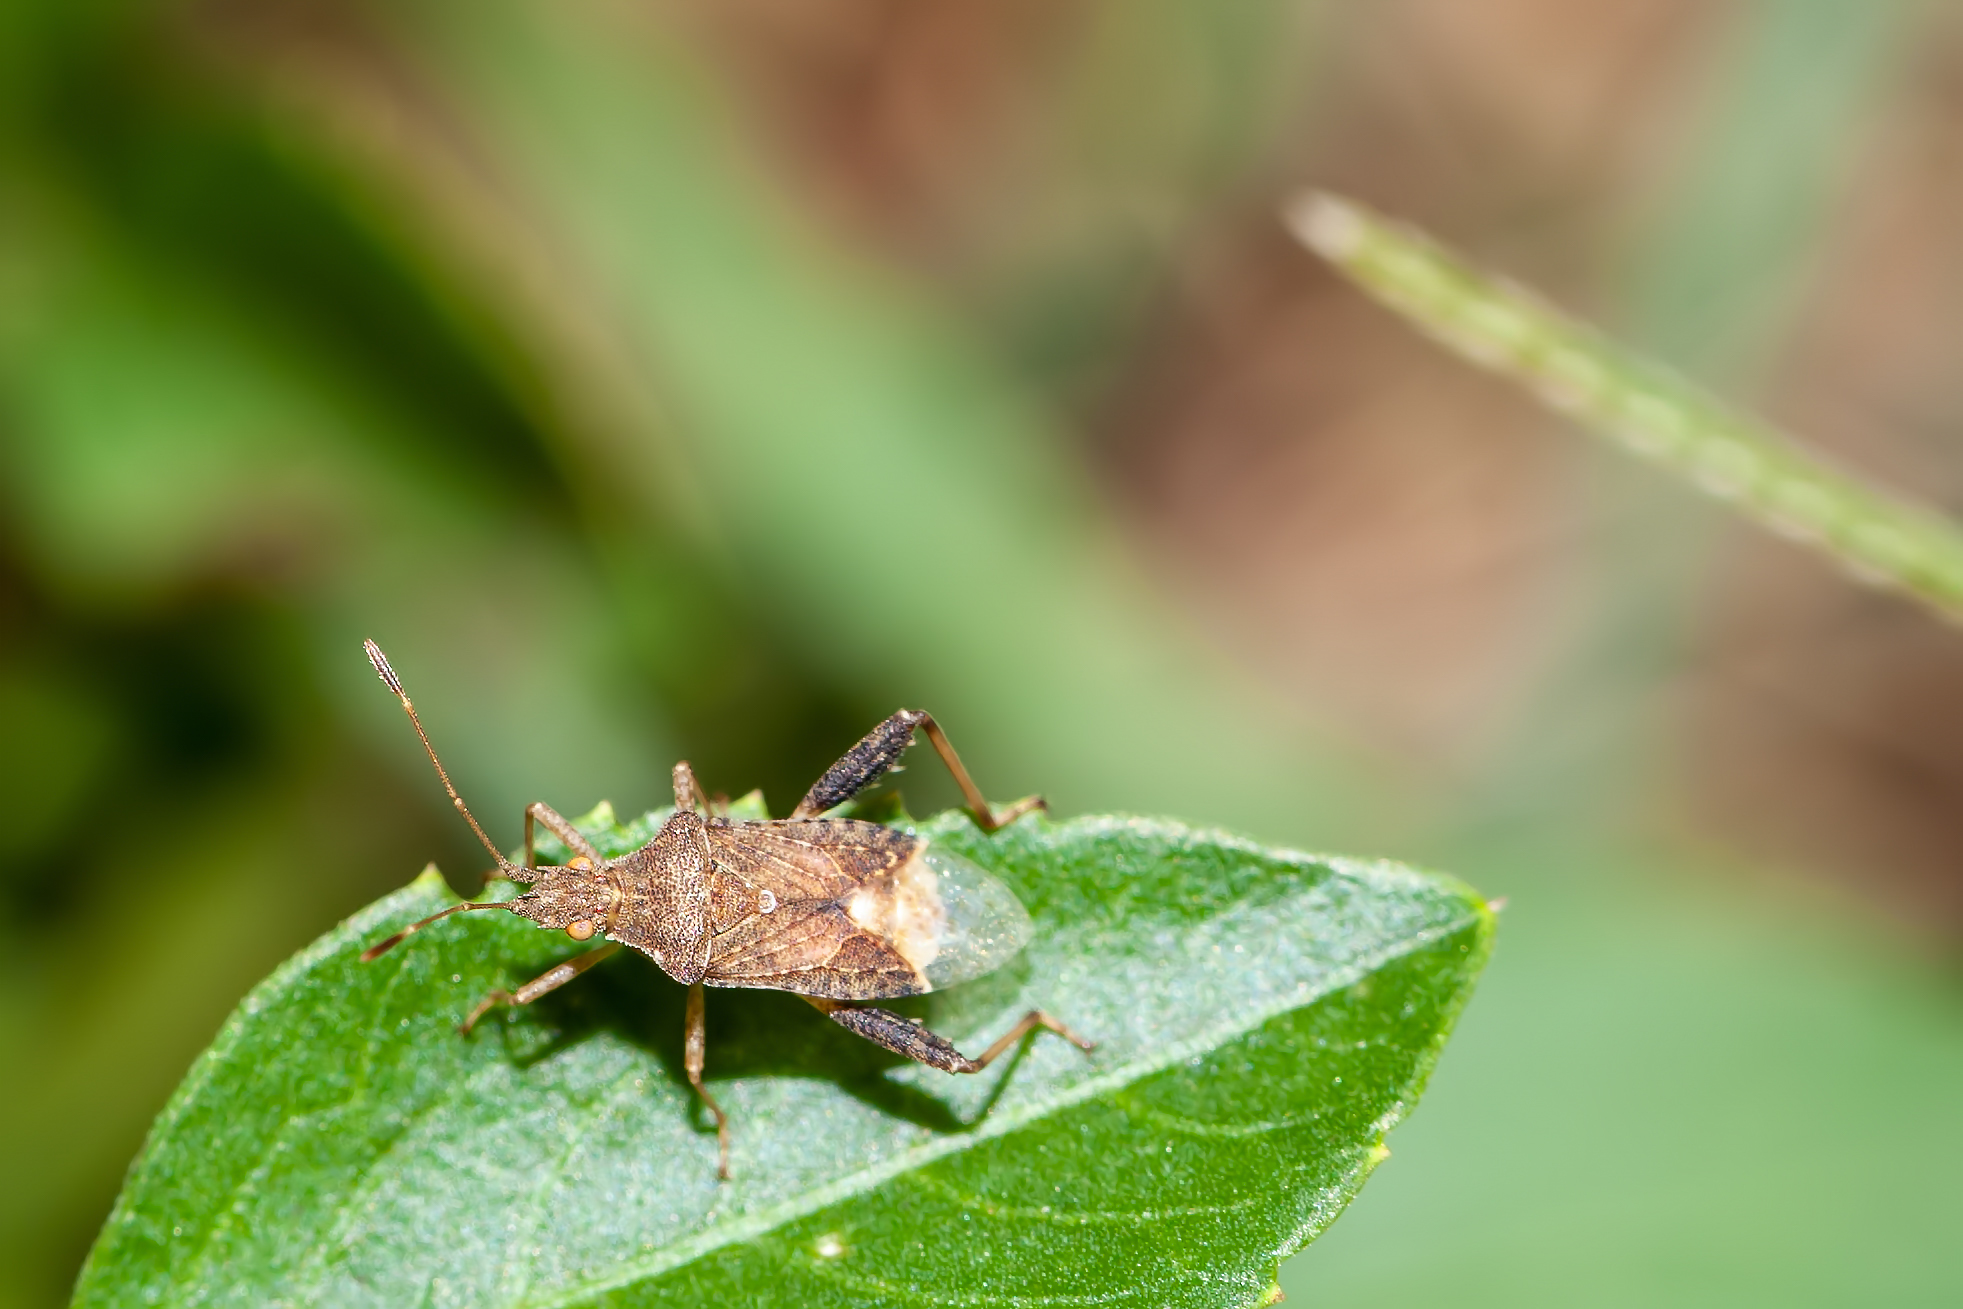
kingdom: Animalia
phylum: Arthropoda
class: Insecta
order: Hemiptera
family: Rhopalidae
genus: Harmostes
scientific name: Harmostes serratus
